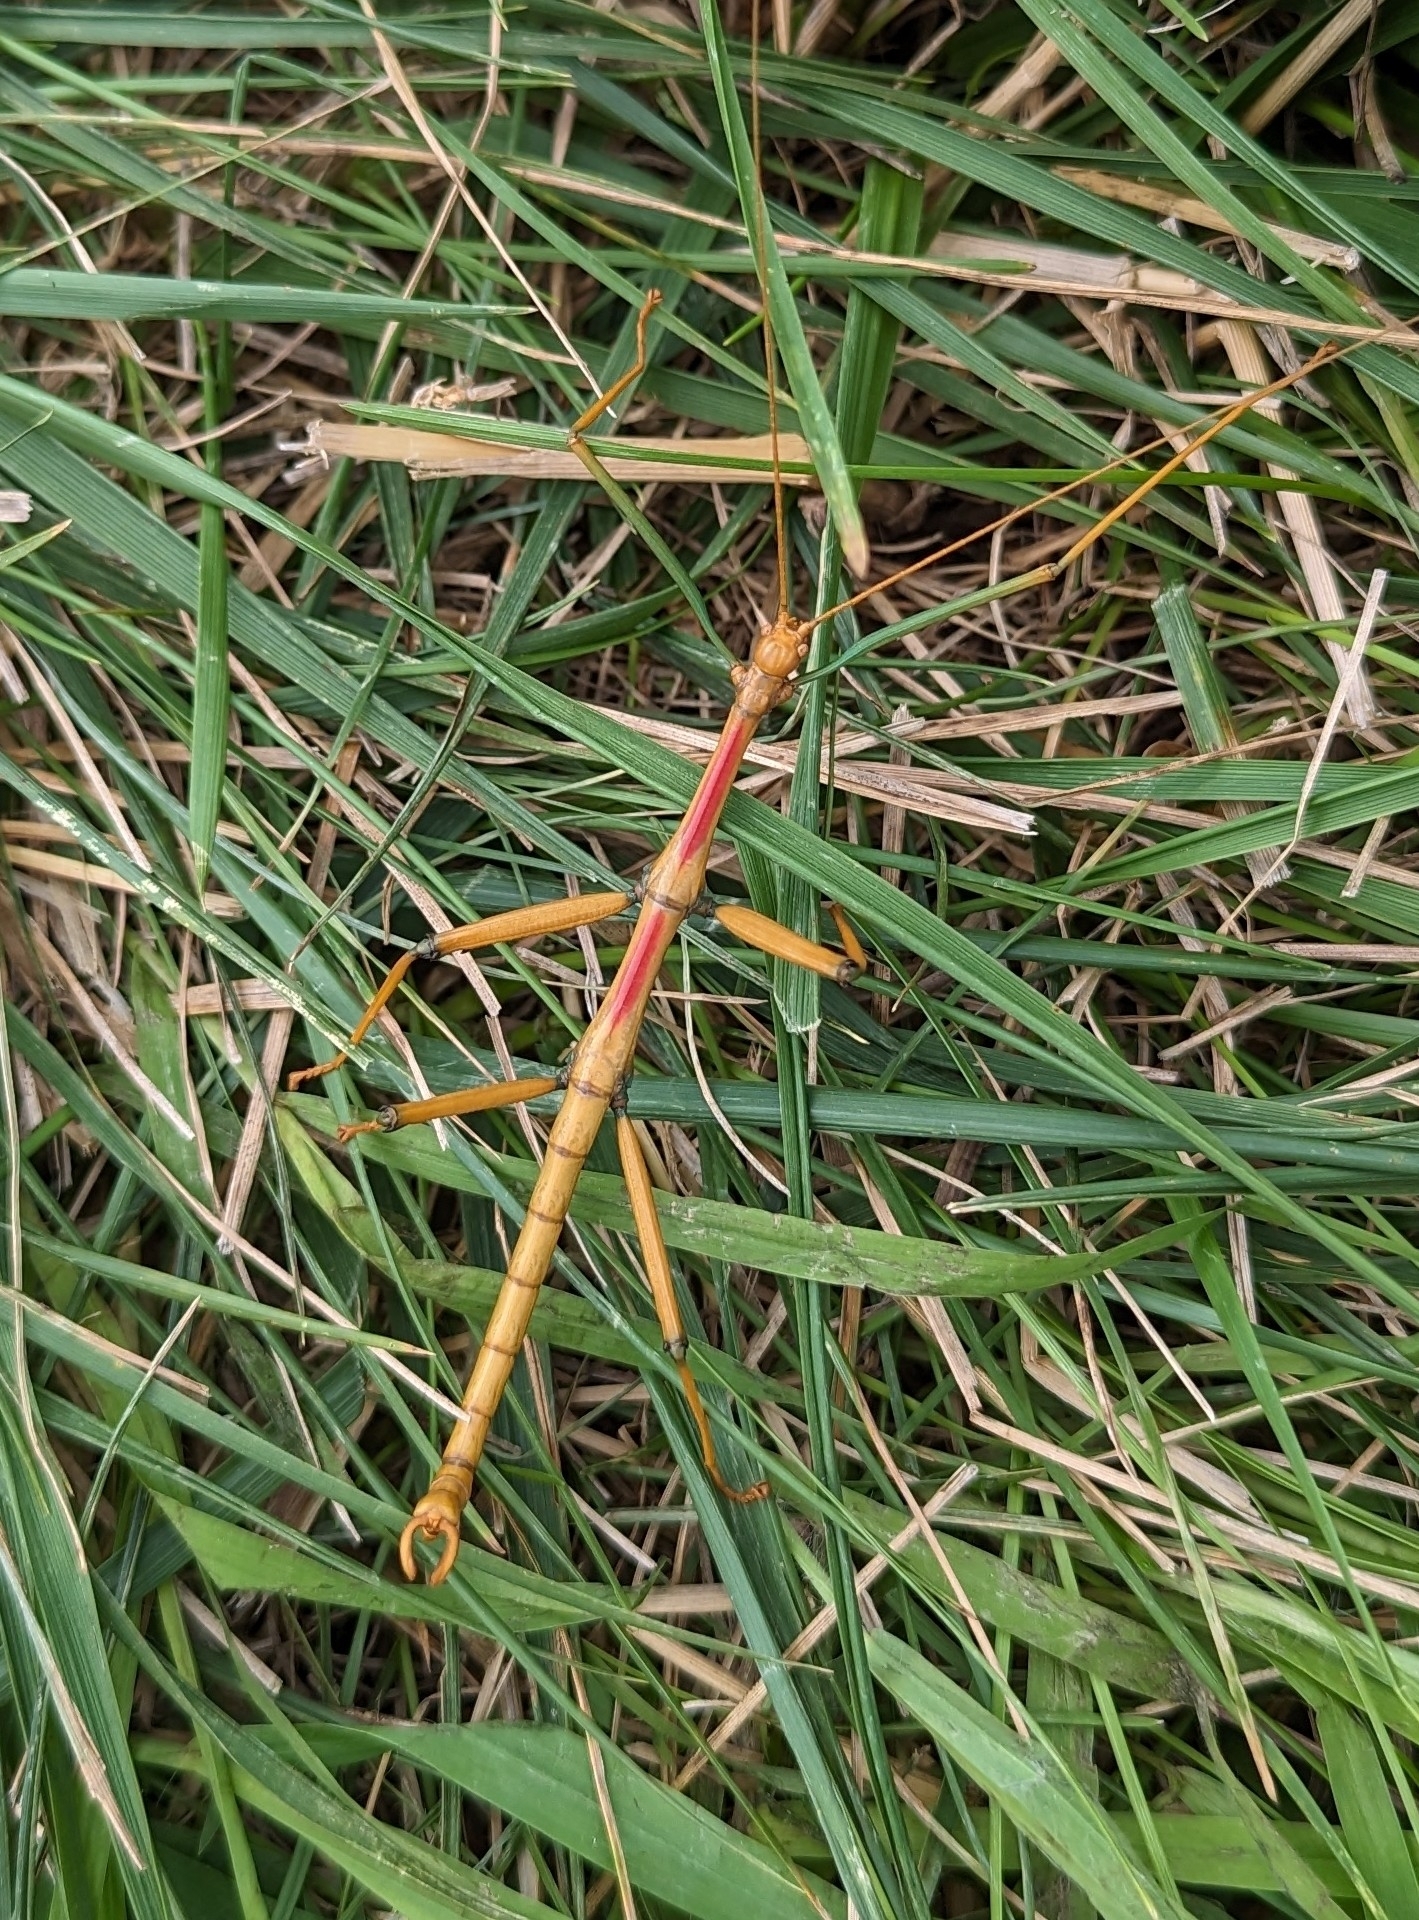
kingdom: Animalia
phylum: Arthropoda
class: Insecta
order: Phasmida
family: Diapheromeridae
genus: Megaphasma
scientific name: Megaphasma denticrus
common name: Giant walkingstick
